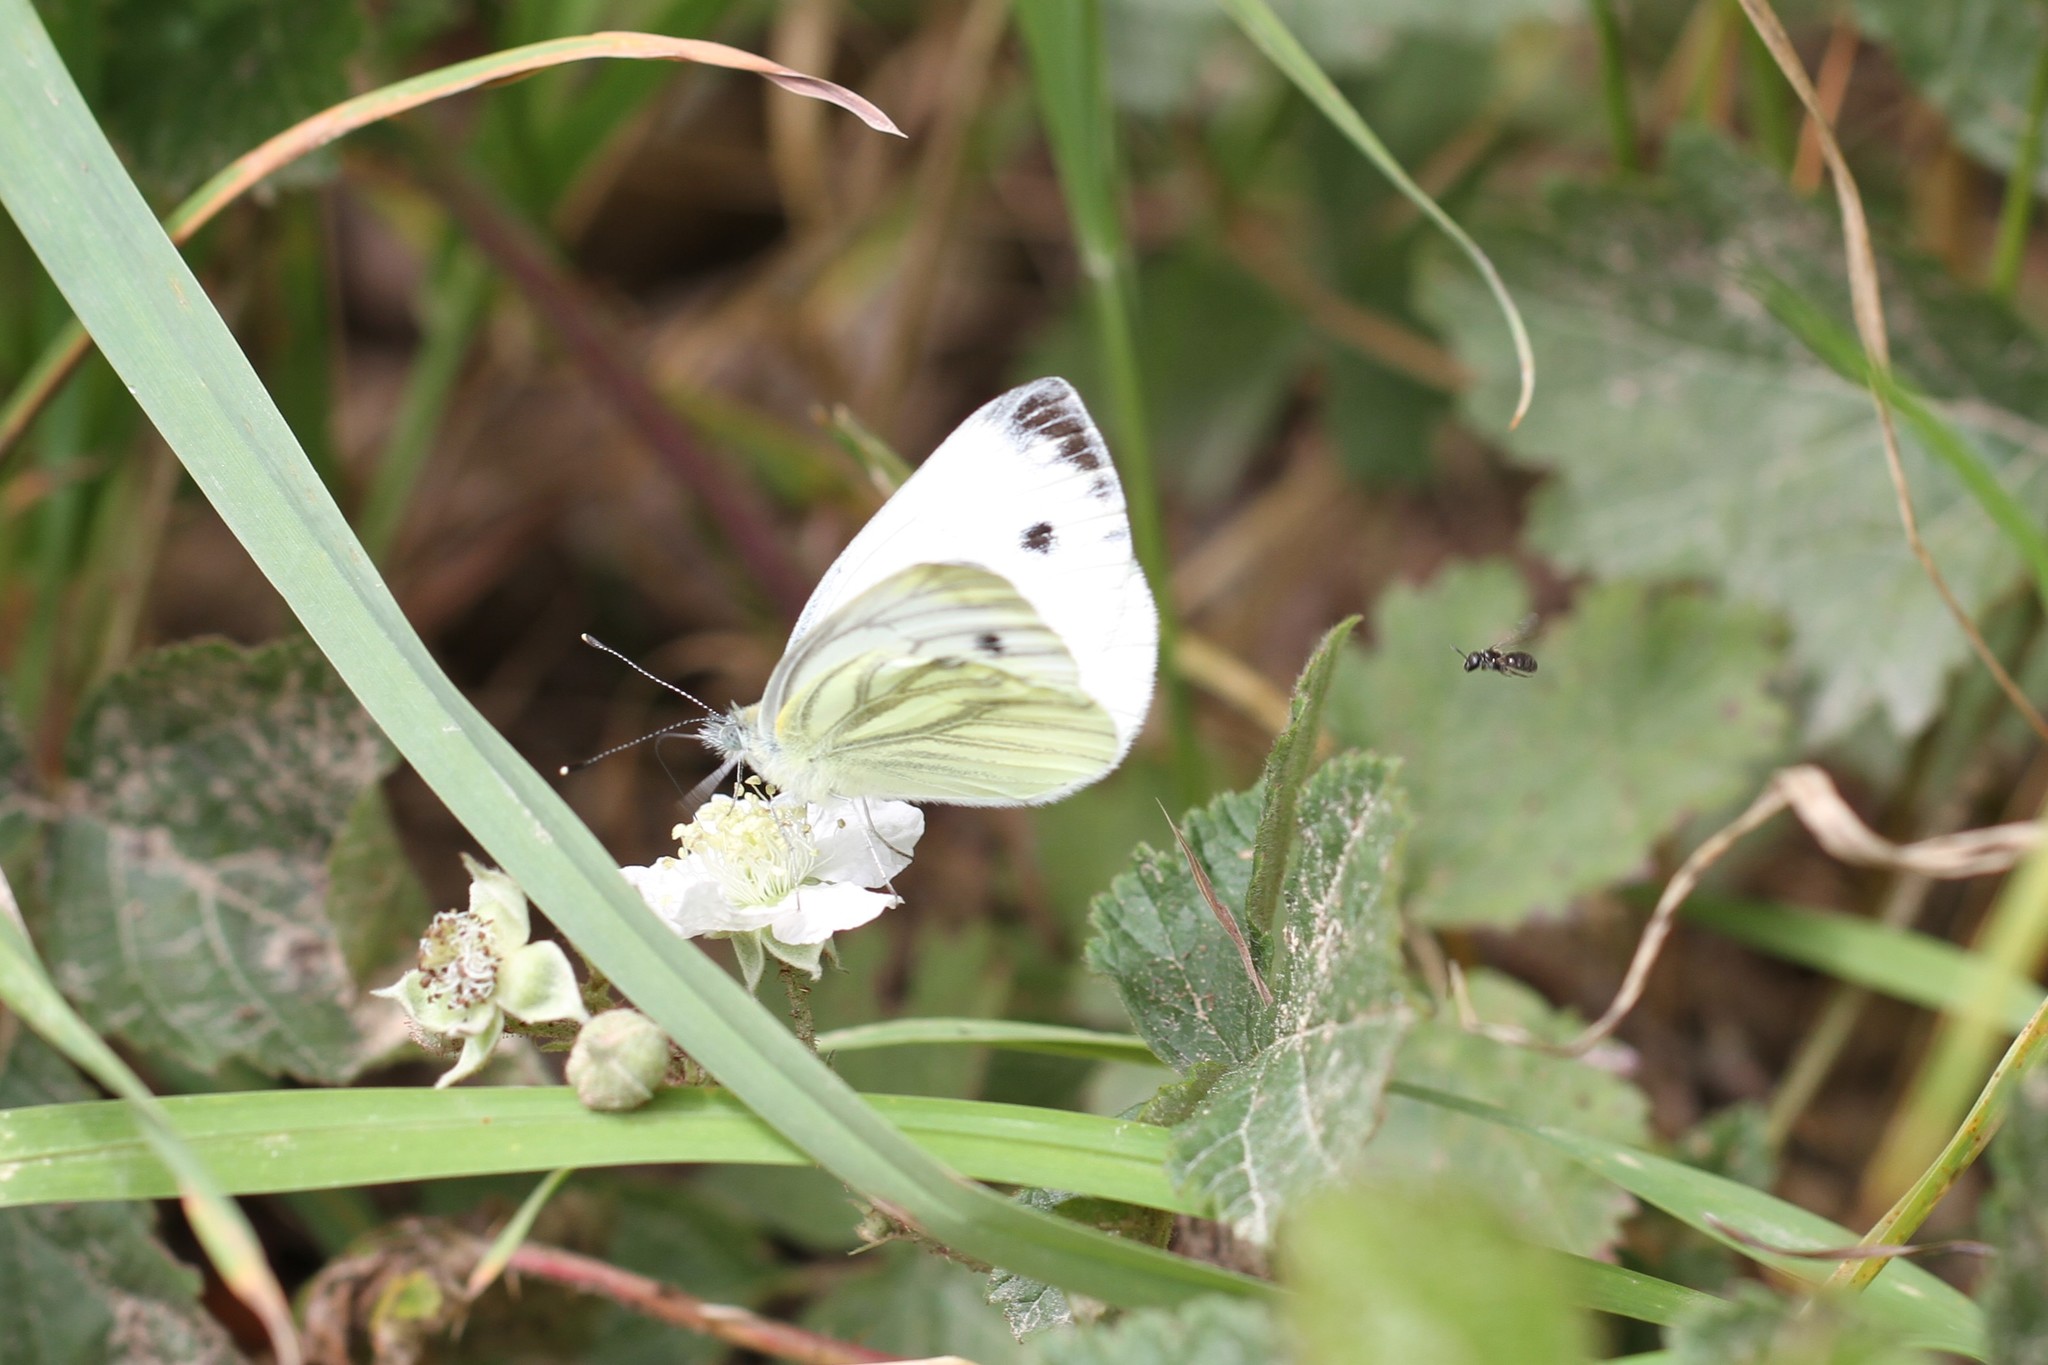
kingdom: Animalia
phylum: Arthropoda
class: Insecta
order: Lepidoptera
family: Pieridae
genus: Pieris
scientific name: Pieris napi
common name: Green-veined white
